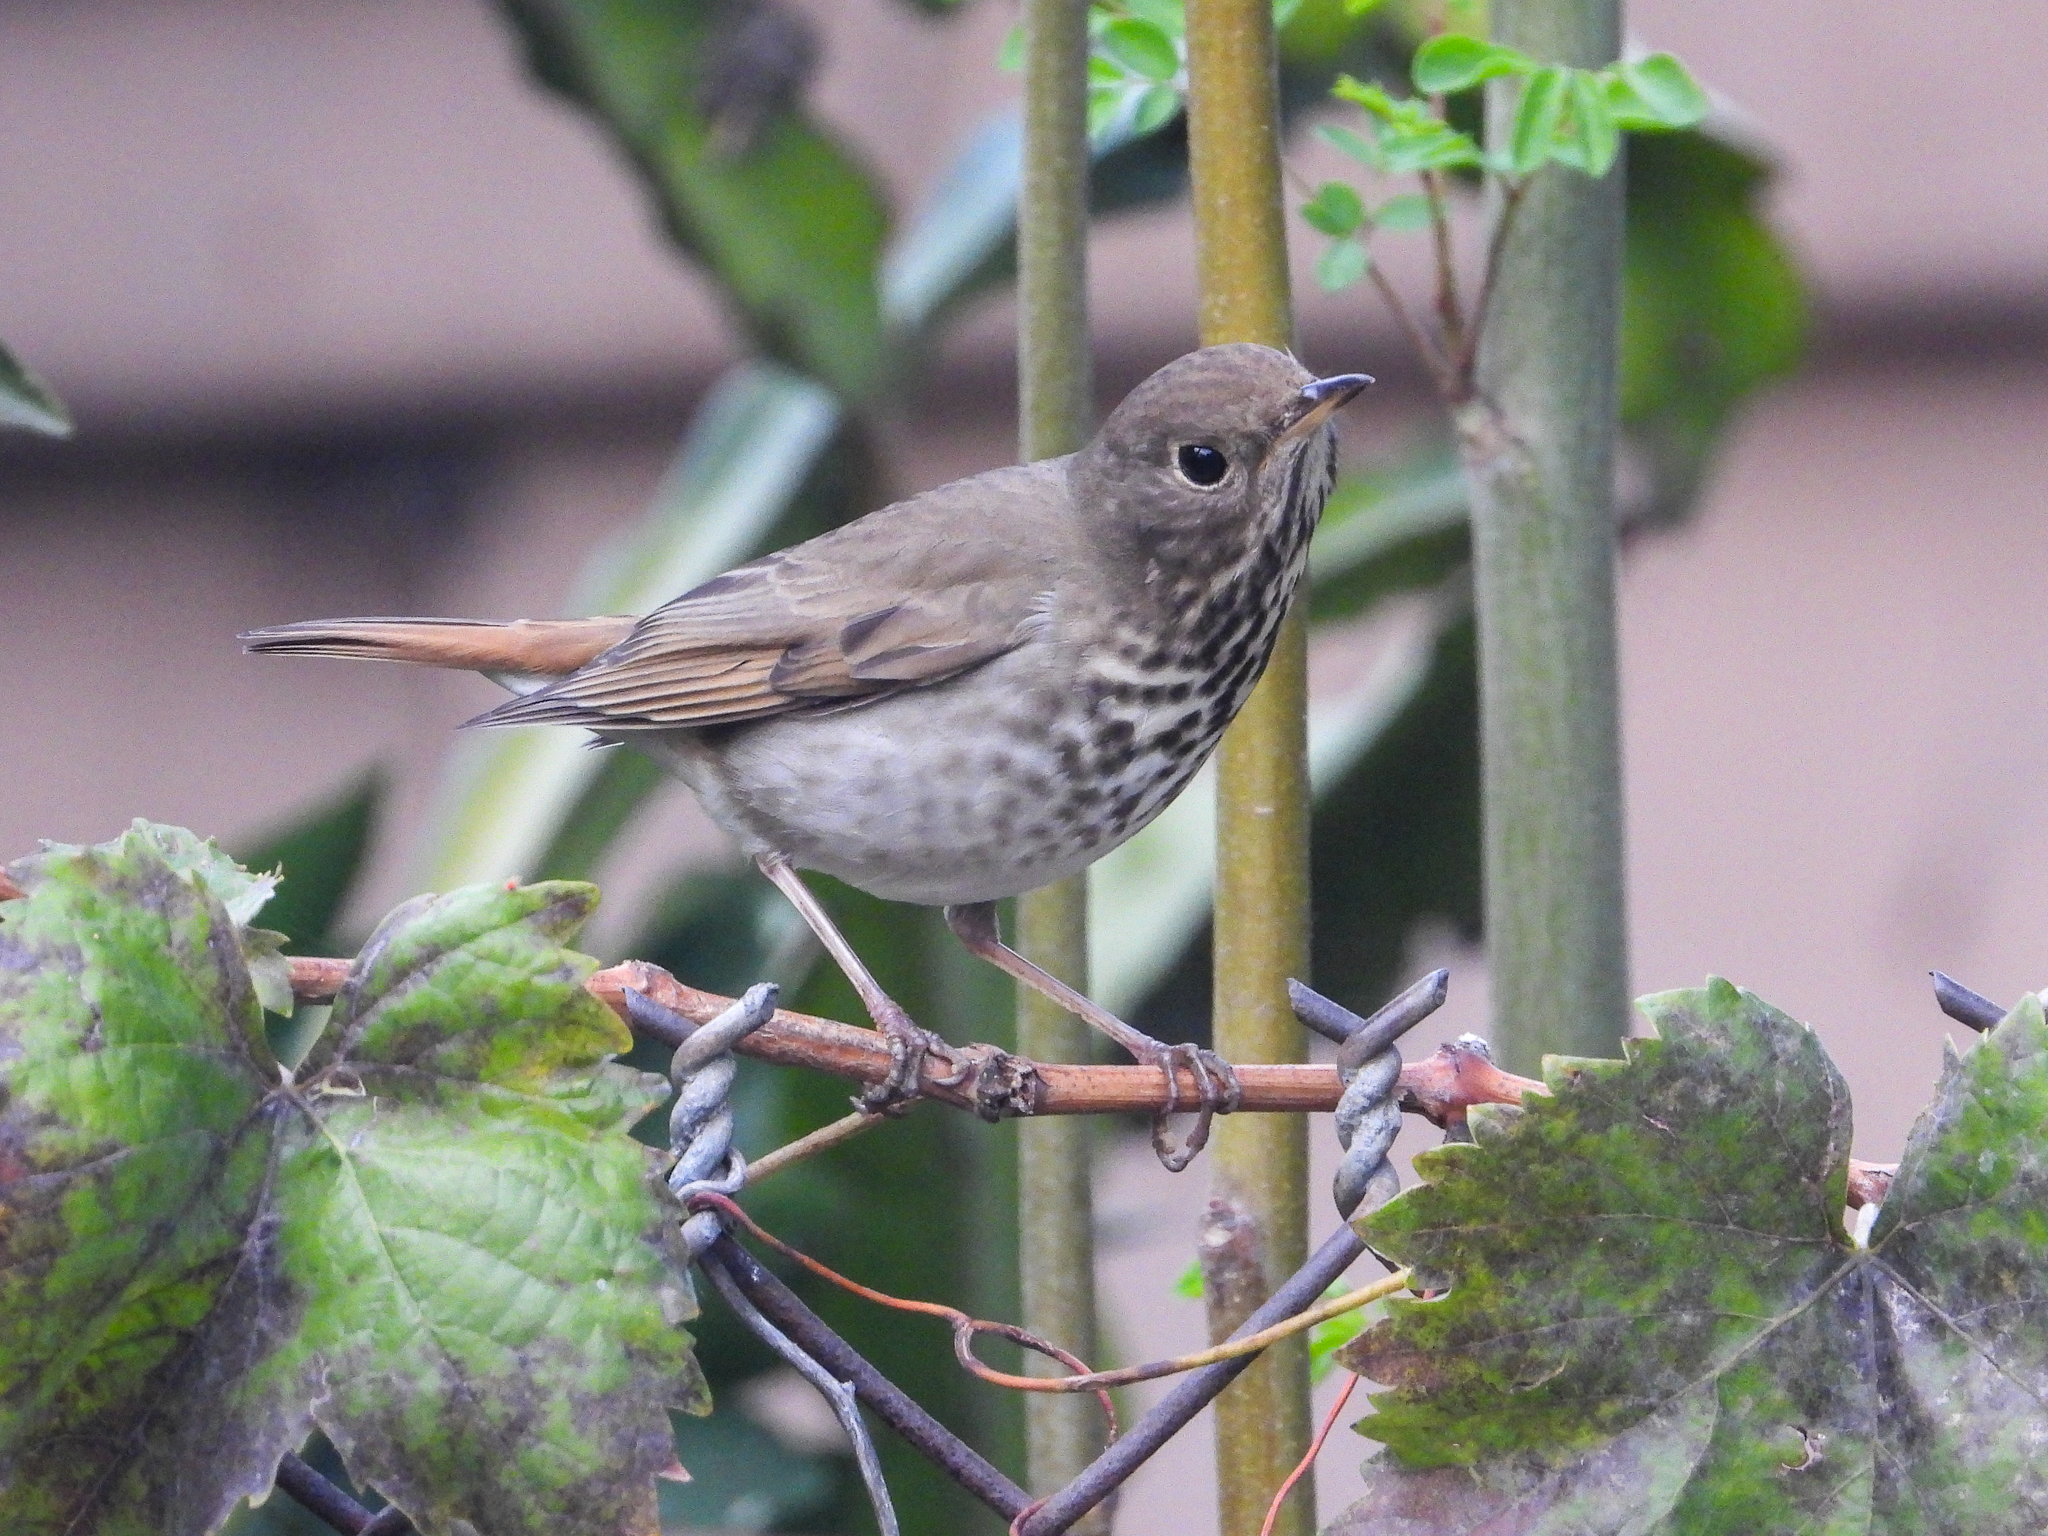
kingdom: Animalia
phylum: Chordata
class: Aves
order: Passeriformes
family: Turdidae
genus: Catharus
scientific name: Catharus guttatus
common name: Hermit thrush
